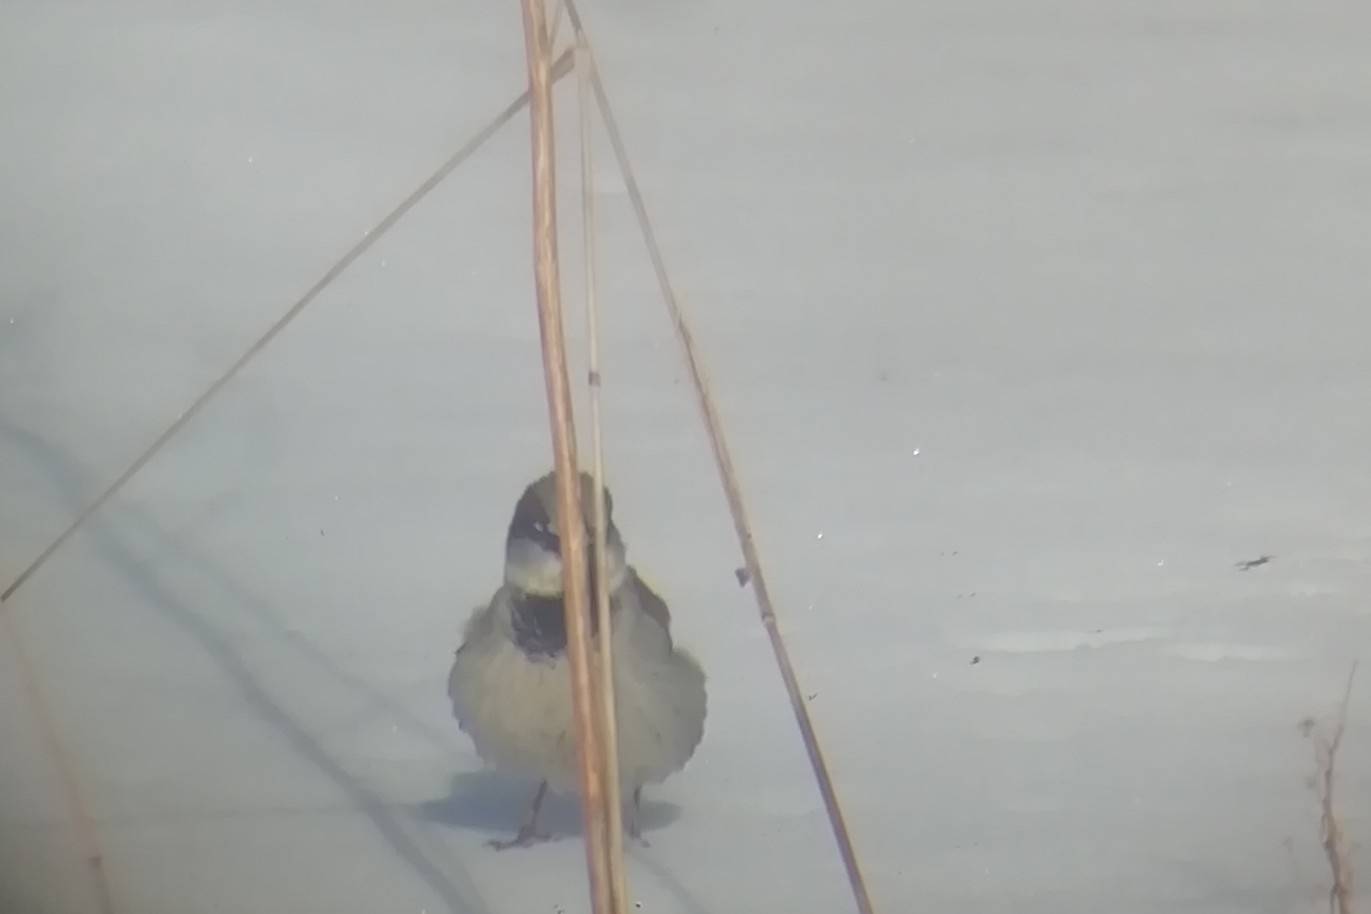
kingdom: Animalia
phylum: Chordata
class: Aves
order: Passeriformes
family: Passeridae
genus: Passer
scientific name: Passer domesticus
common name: House sparrow
